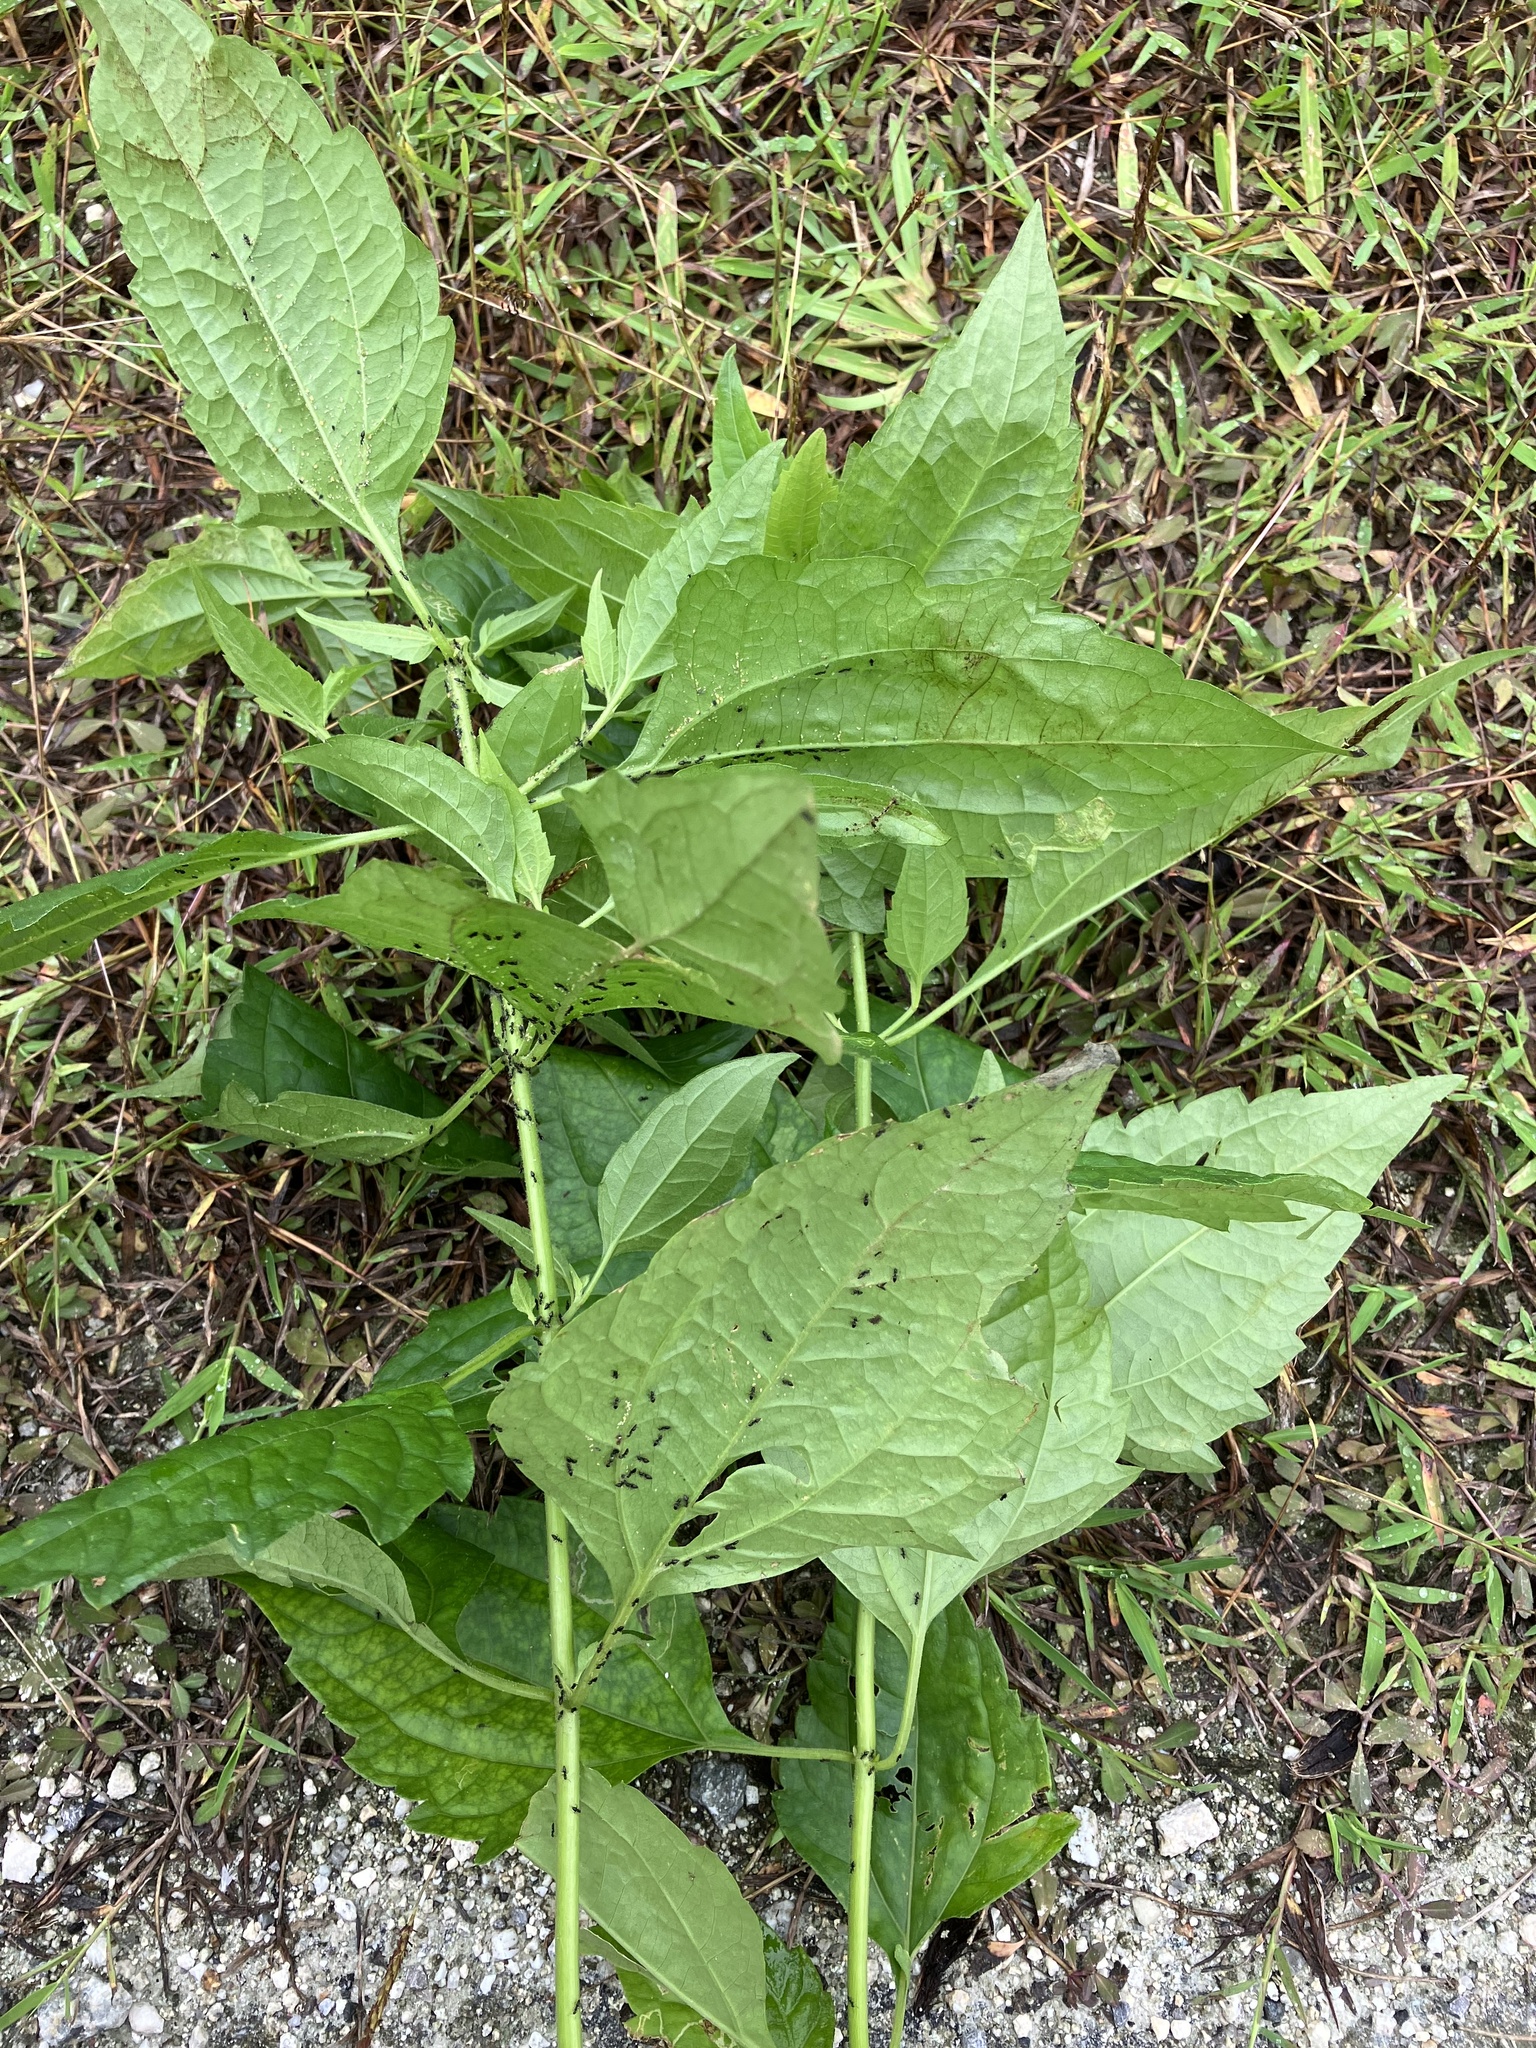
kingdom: Plantae
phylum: Tracheophyta
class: Magnoliopsida
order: Asterales
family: Asteraceae
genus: Chromolaena
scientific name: Chromolaena odorata
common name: Siamweed
